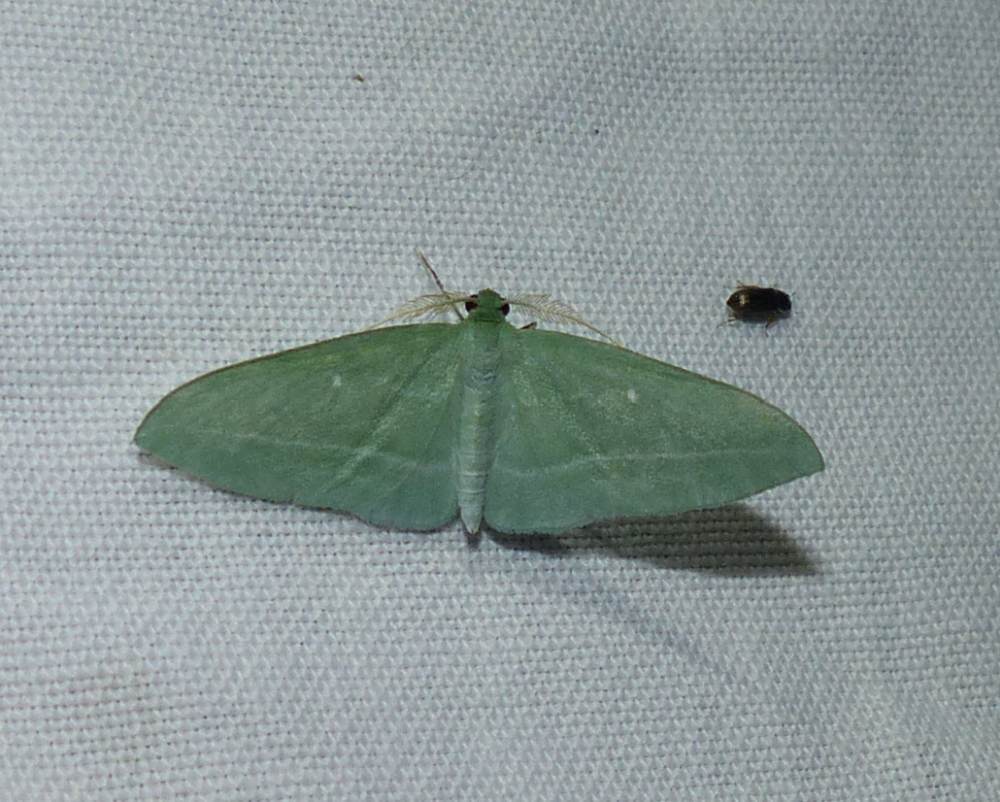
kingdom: Animalia
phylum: Arthropoda
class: Insecta
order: Lepidoptera
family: Geometridae
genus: Dyspteris
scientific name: Dyspteris abortivaria
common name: Bad-wing
